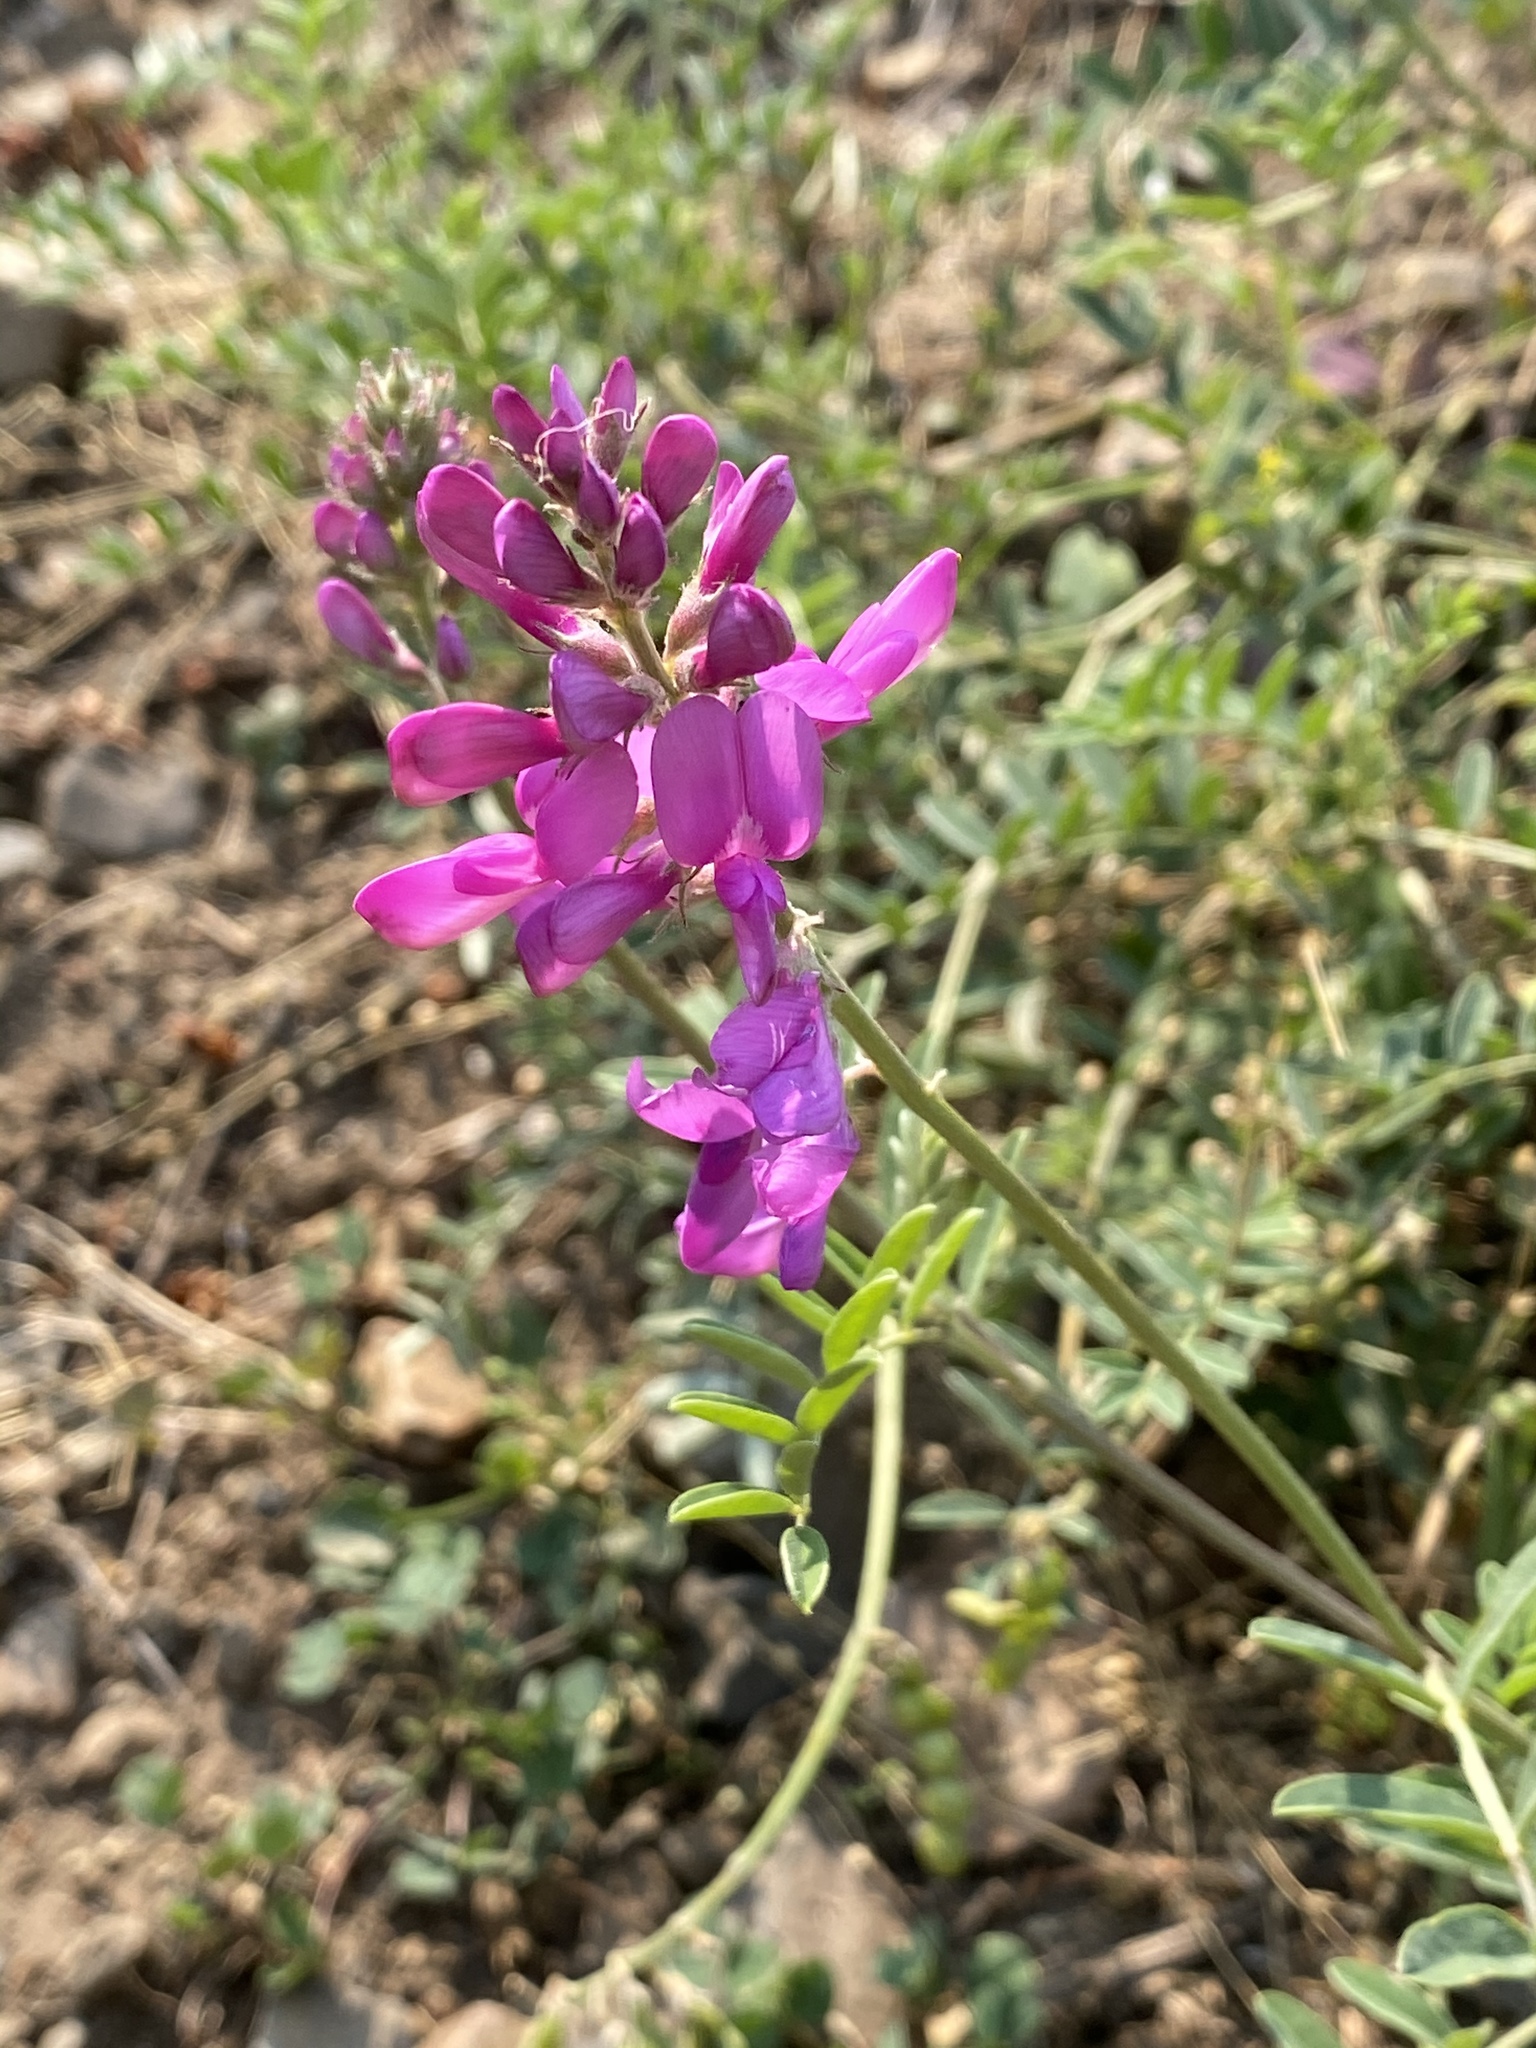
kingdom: Plantae
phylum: Tracheophyta
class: Magnoliopsida
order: Fabales
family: Fabaceae
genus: Hedysarum
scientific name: Hedysarum boreale
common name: Northern sweet-vetch
